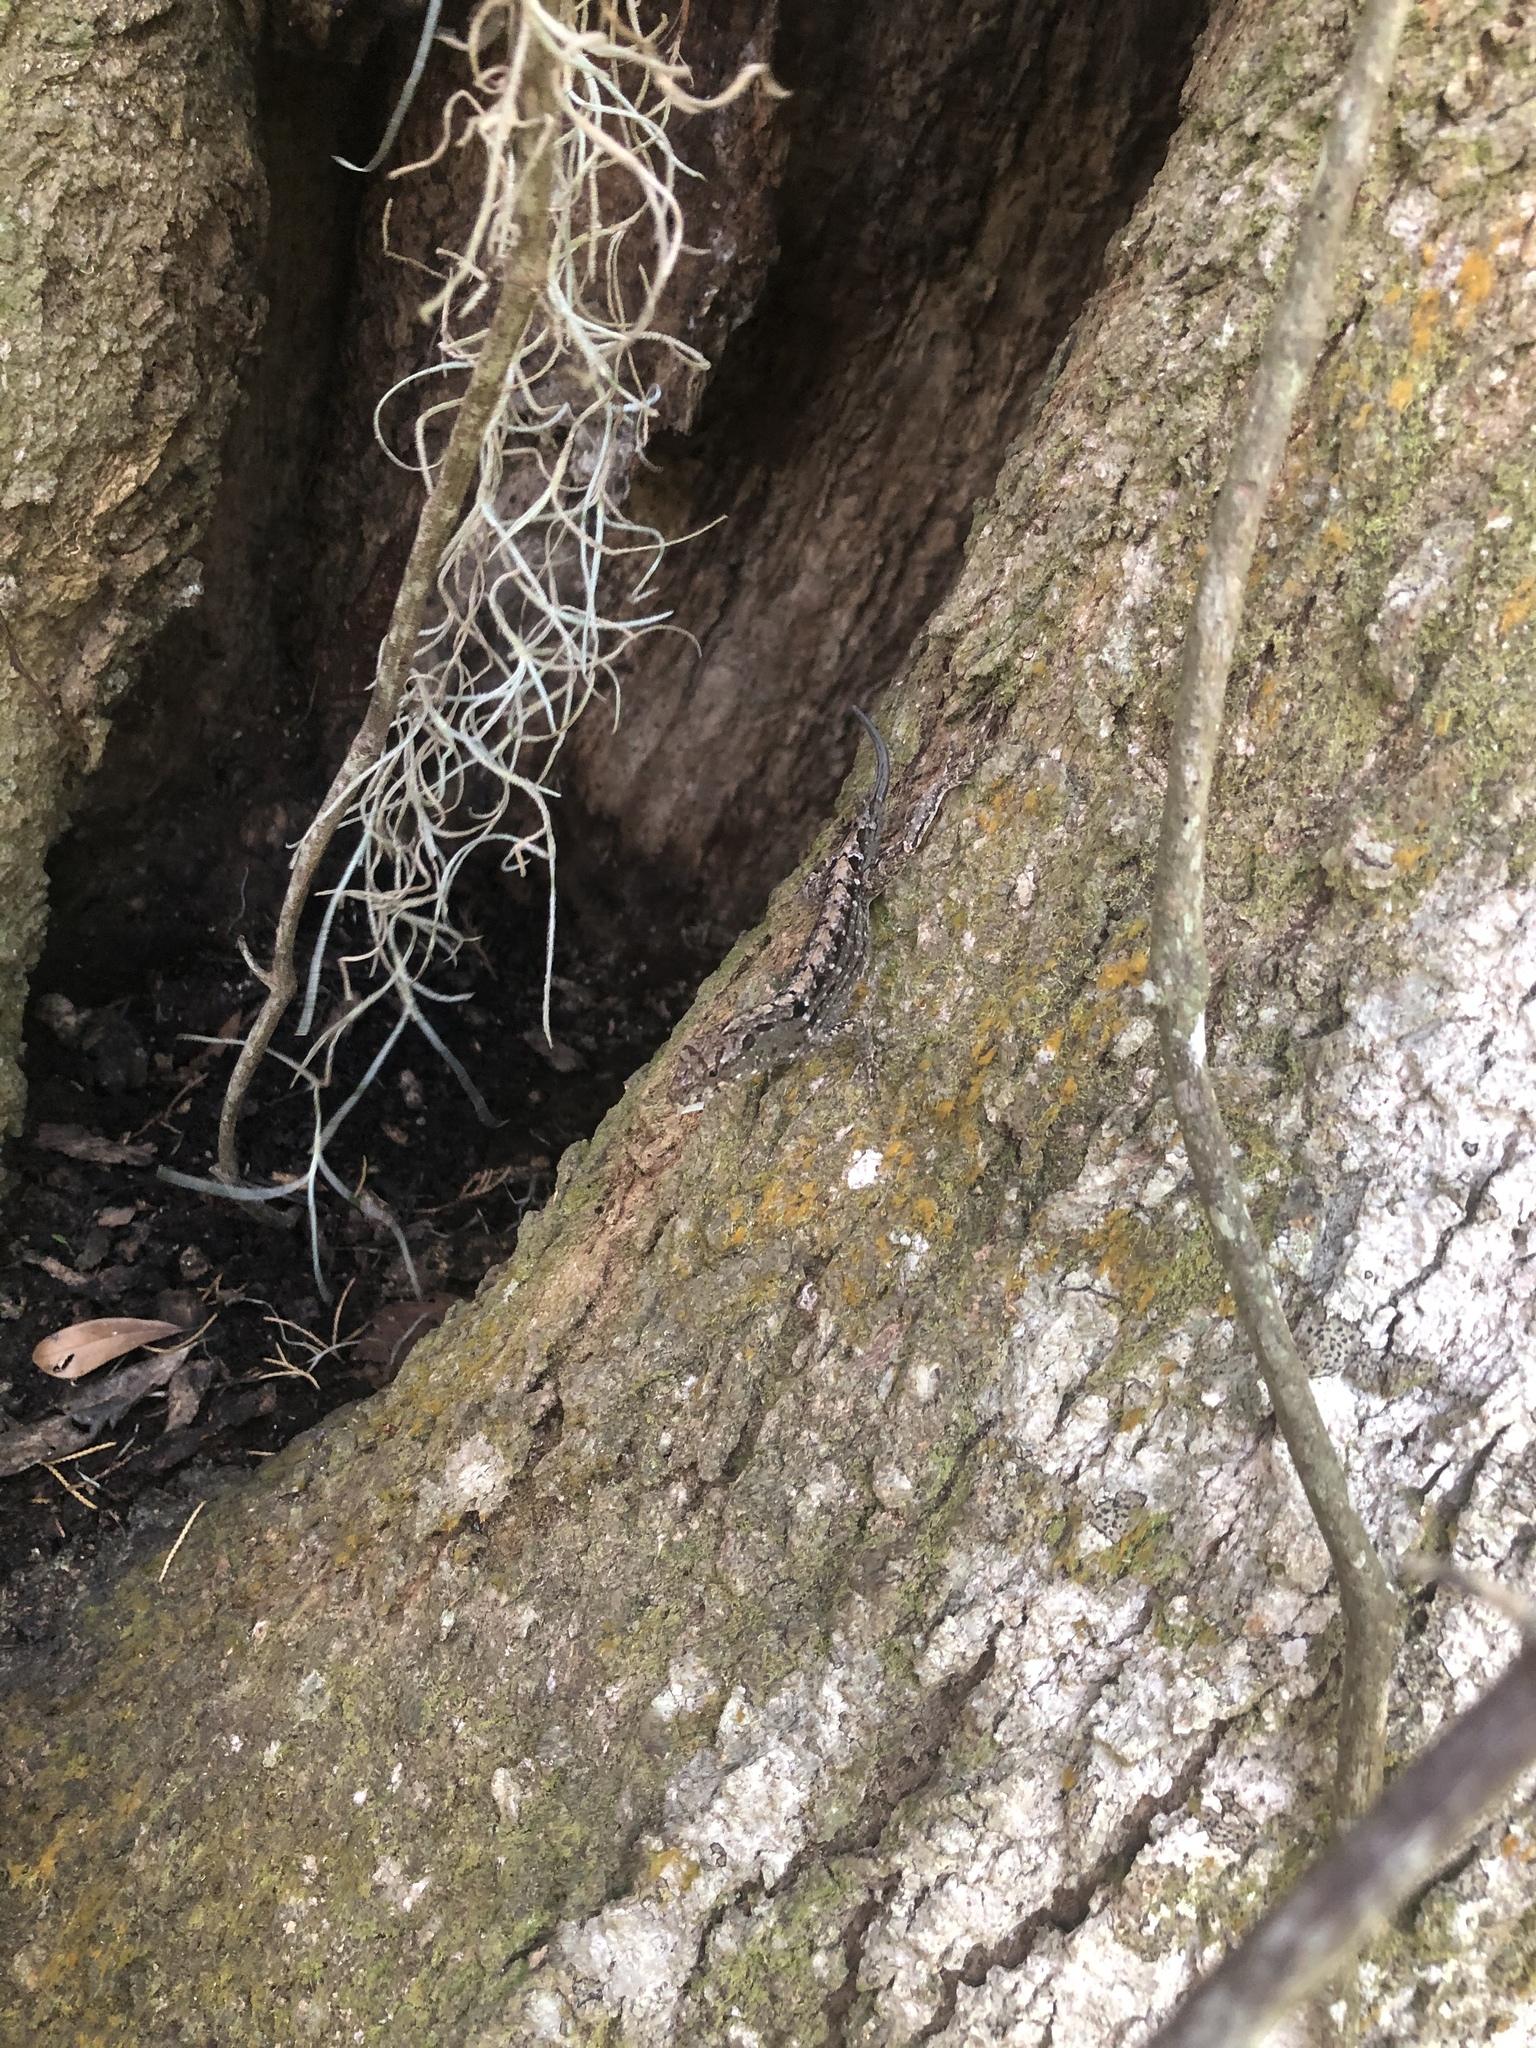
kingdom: Animalia
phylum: Chordata
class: Squamata
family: Dactyloidae
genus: Anolis
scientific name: Anolis sagrei
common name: Brown anole
